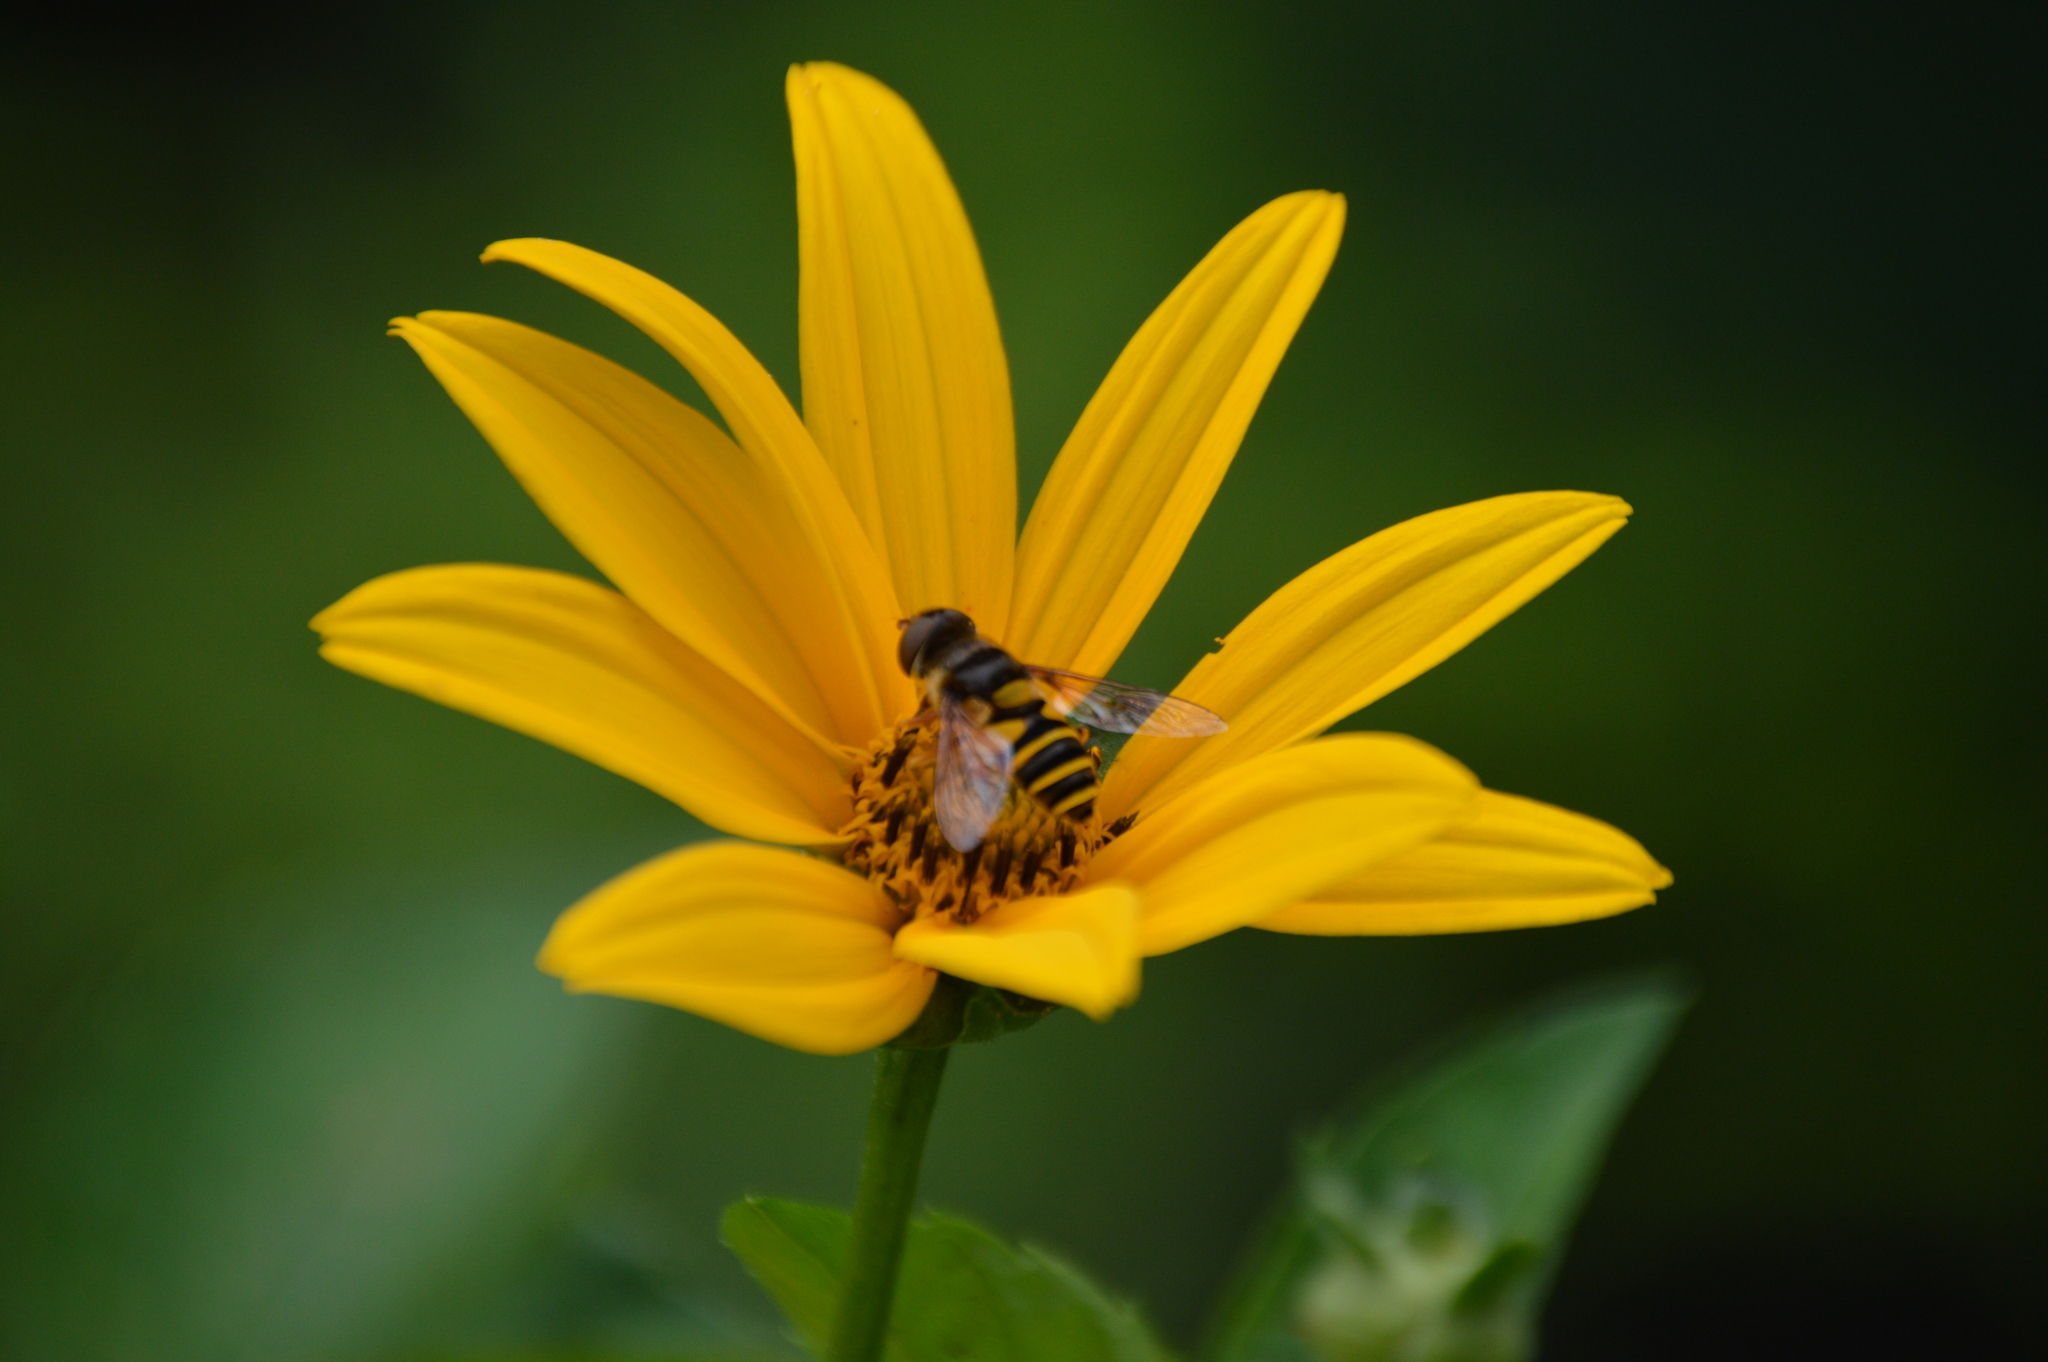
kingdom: Animalia
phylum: Arthropoda
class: Insecta
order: Diptera
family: Syrphidae
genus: Eristalis
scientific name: Eristalis transversa
